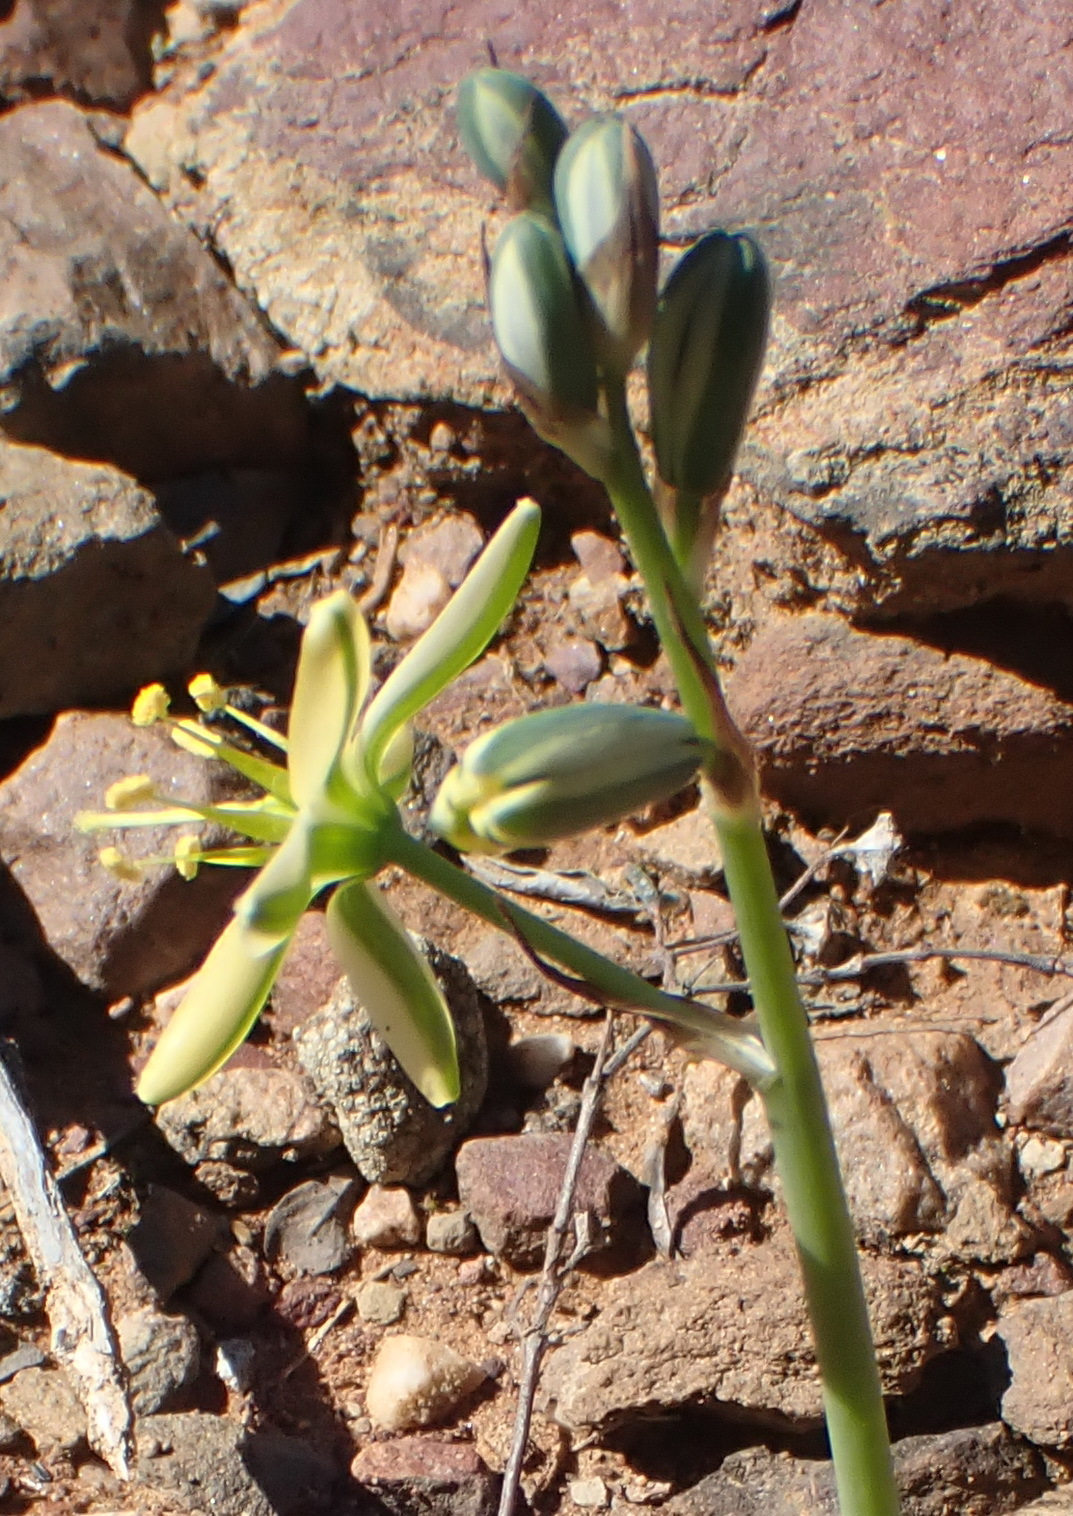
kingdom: Plantae
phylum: Tracheophyta
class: Liliopsida
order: Asparagales
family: Asparagaceae
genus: Albuca
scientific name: Albuca concordiana
